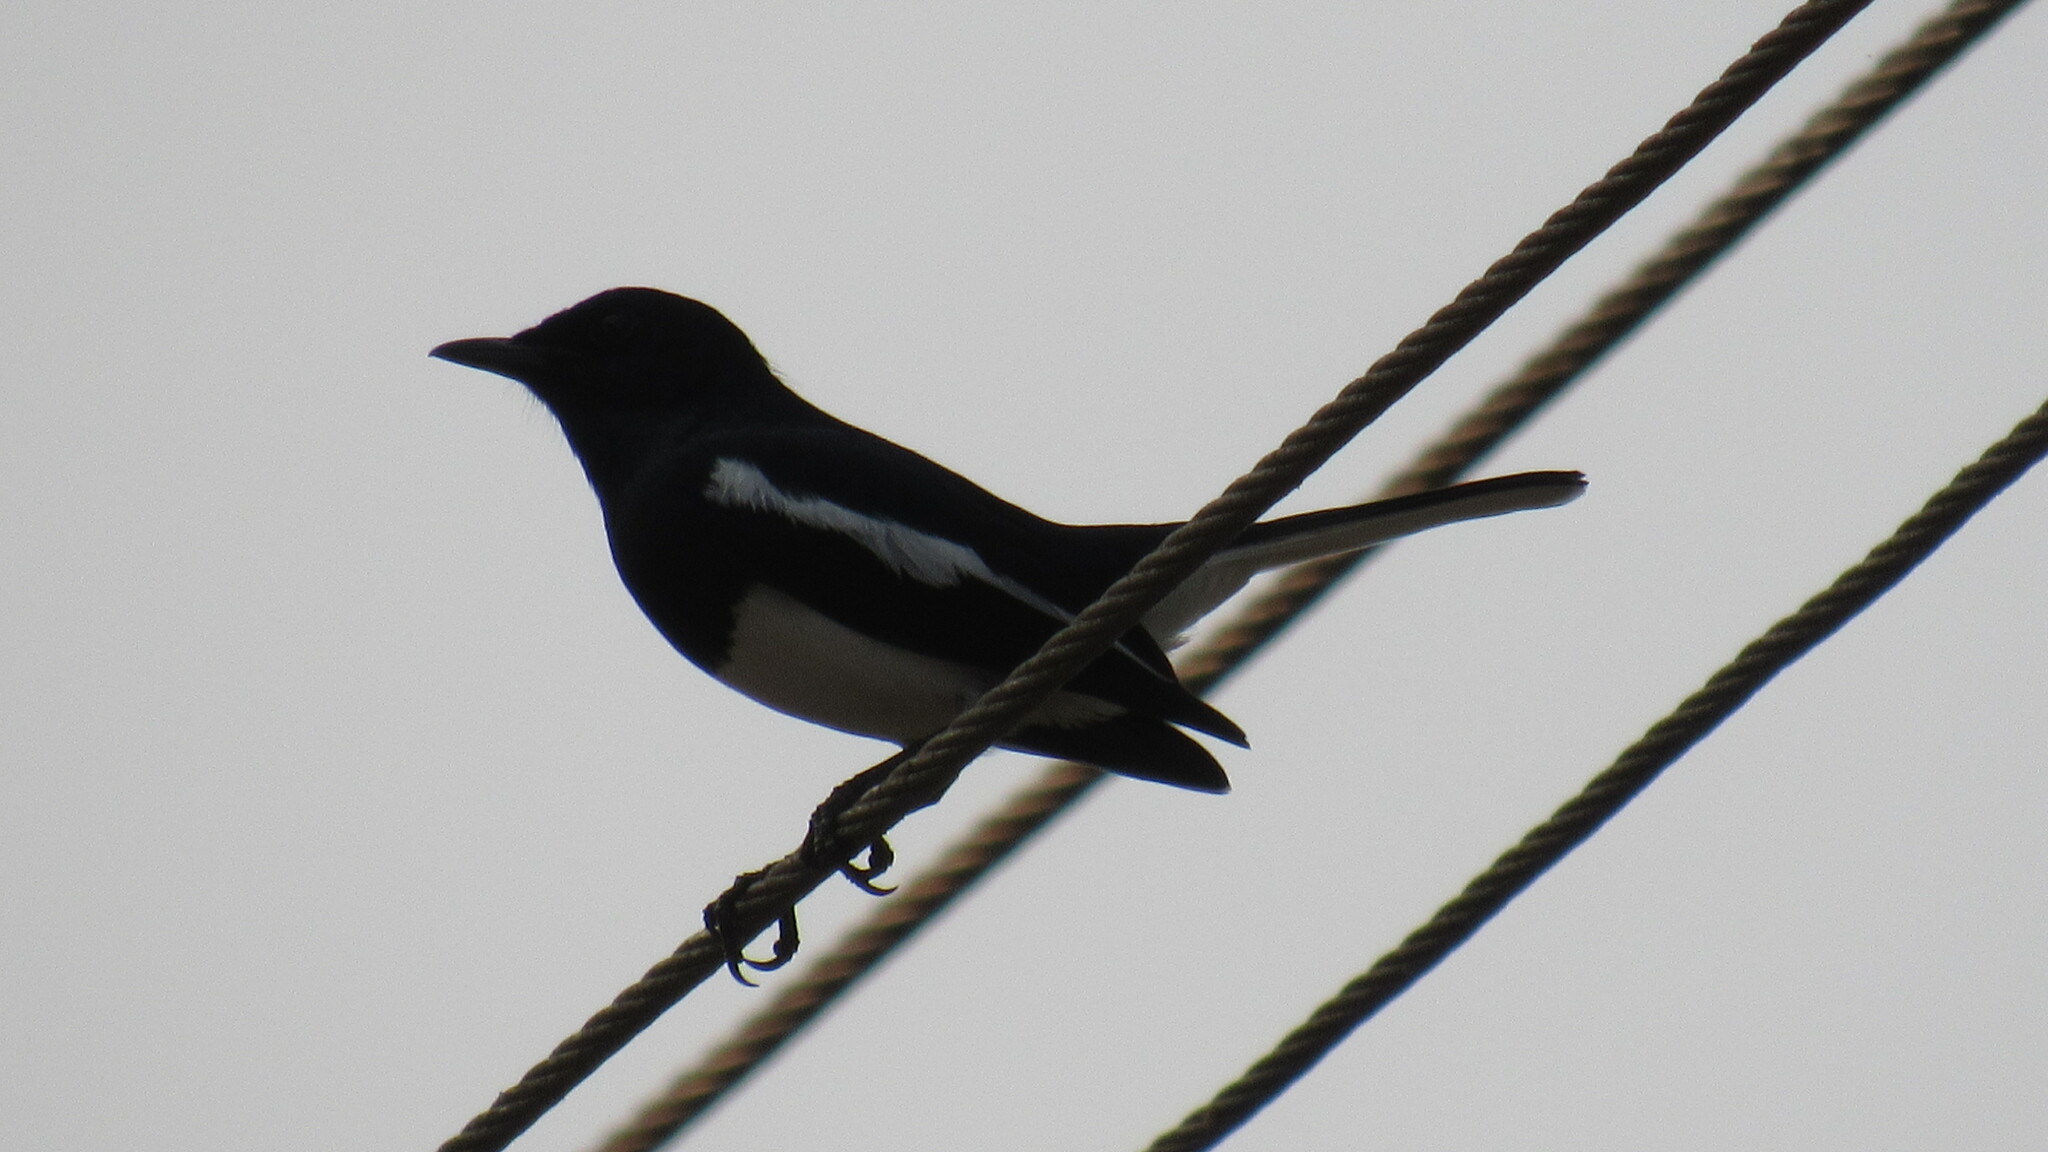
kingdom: Animalia
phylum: Chordata
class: Aves
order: Passeriformes
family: Muscicapidae
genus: Copsychus
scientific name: Copsychus saularis
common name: Oriental magpie-robin
